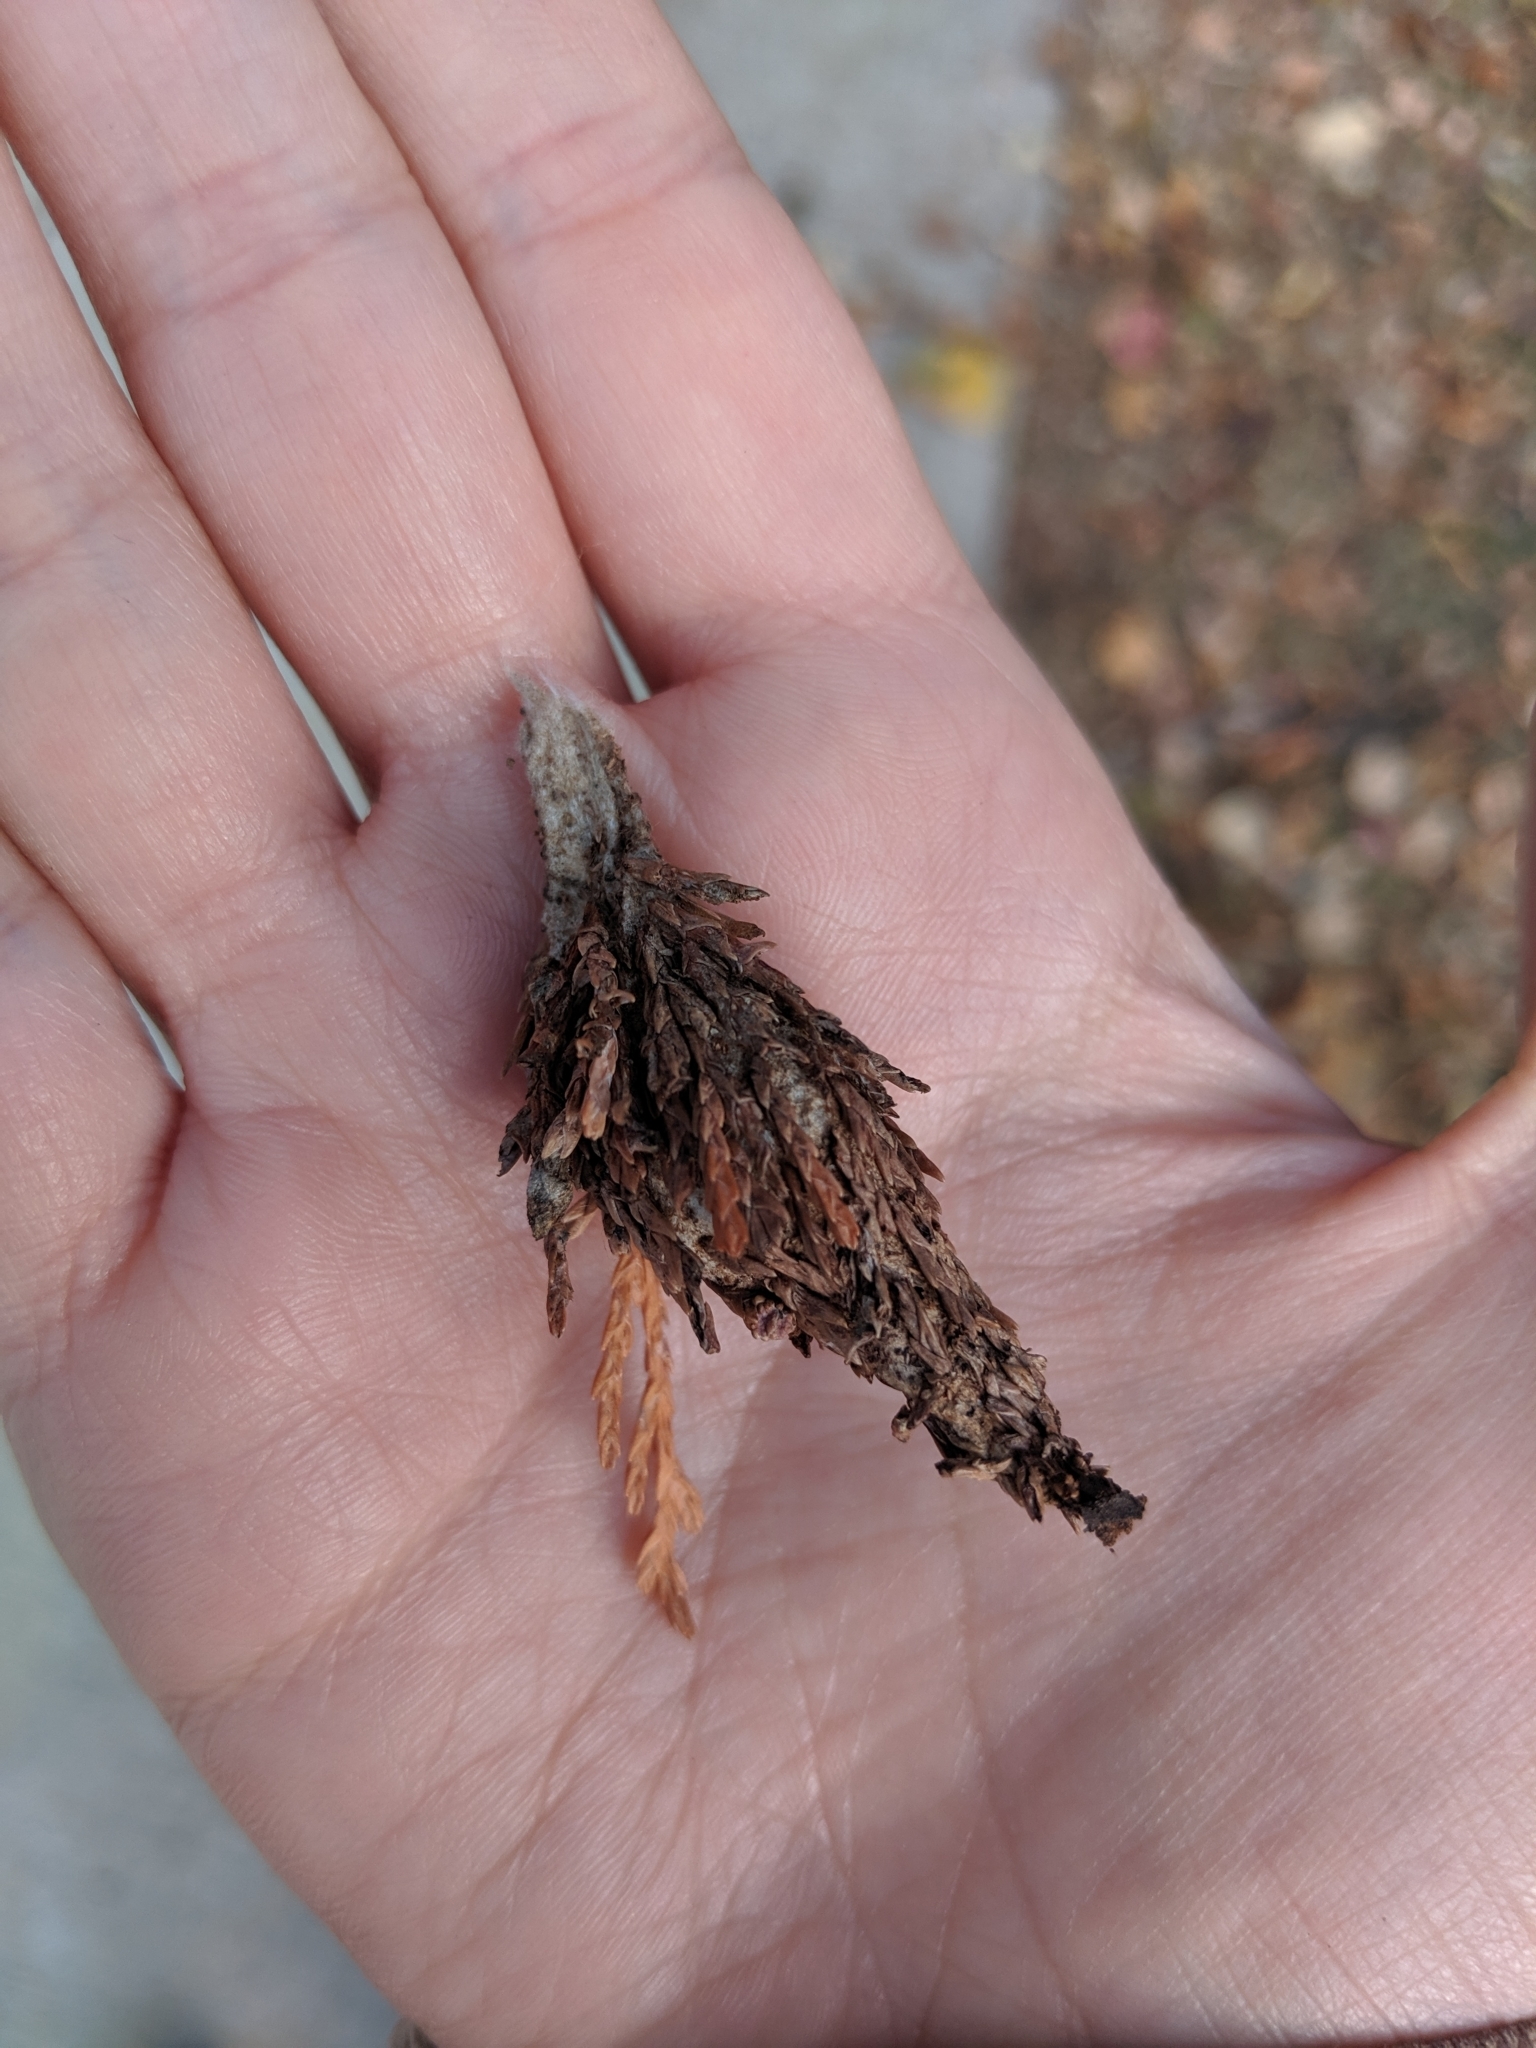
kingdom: Animalia
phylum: Arthropoda
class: Insecta
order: Lepidoptera
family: Psychidae
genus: Thyridopteryx
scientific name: Thyridopteryx ephemeraeformis
